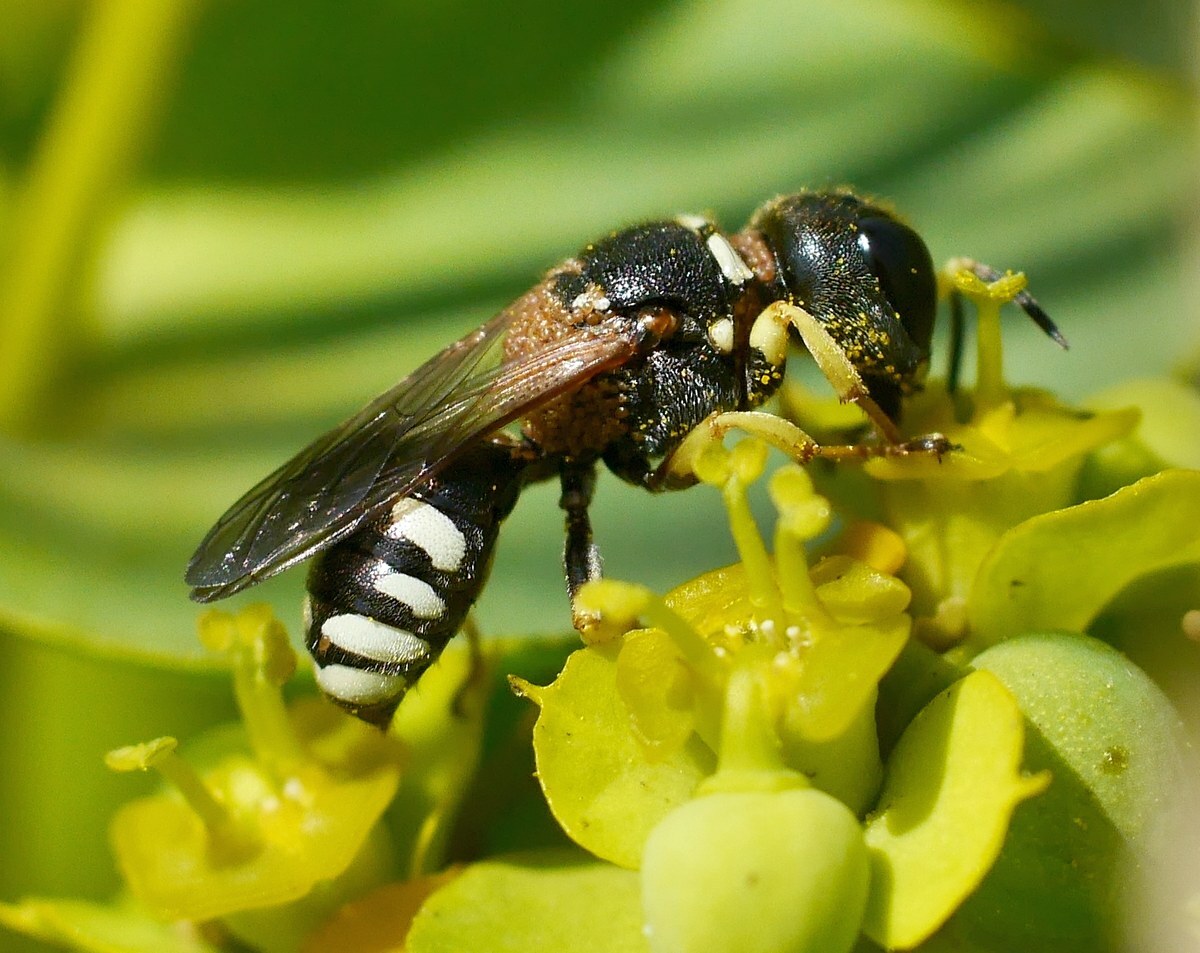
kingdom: Animalia
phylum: Arthropoda
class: Insecta
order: Hymenoptera
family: Crabronidae
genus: Lestica
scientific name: Lestica clypeata
